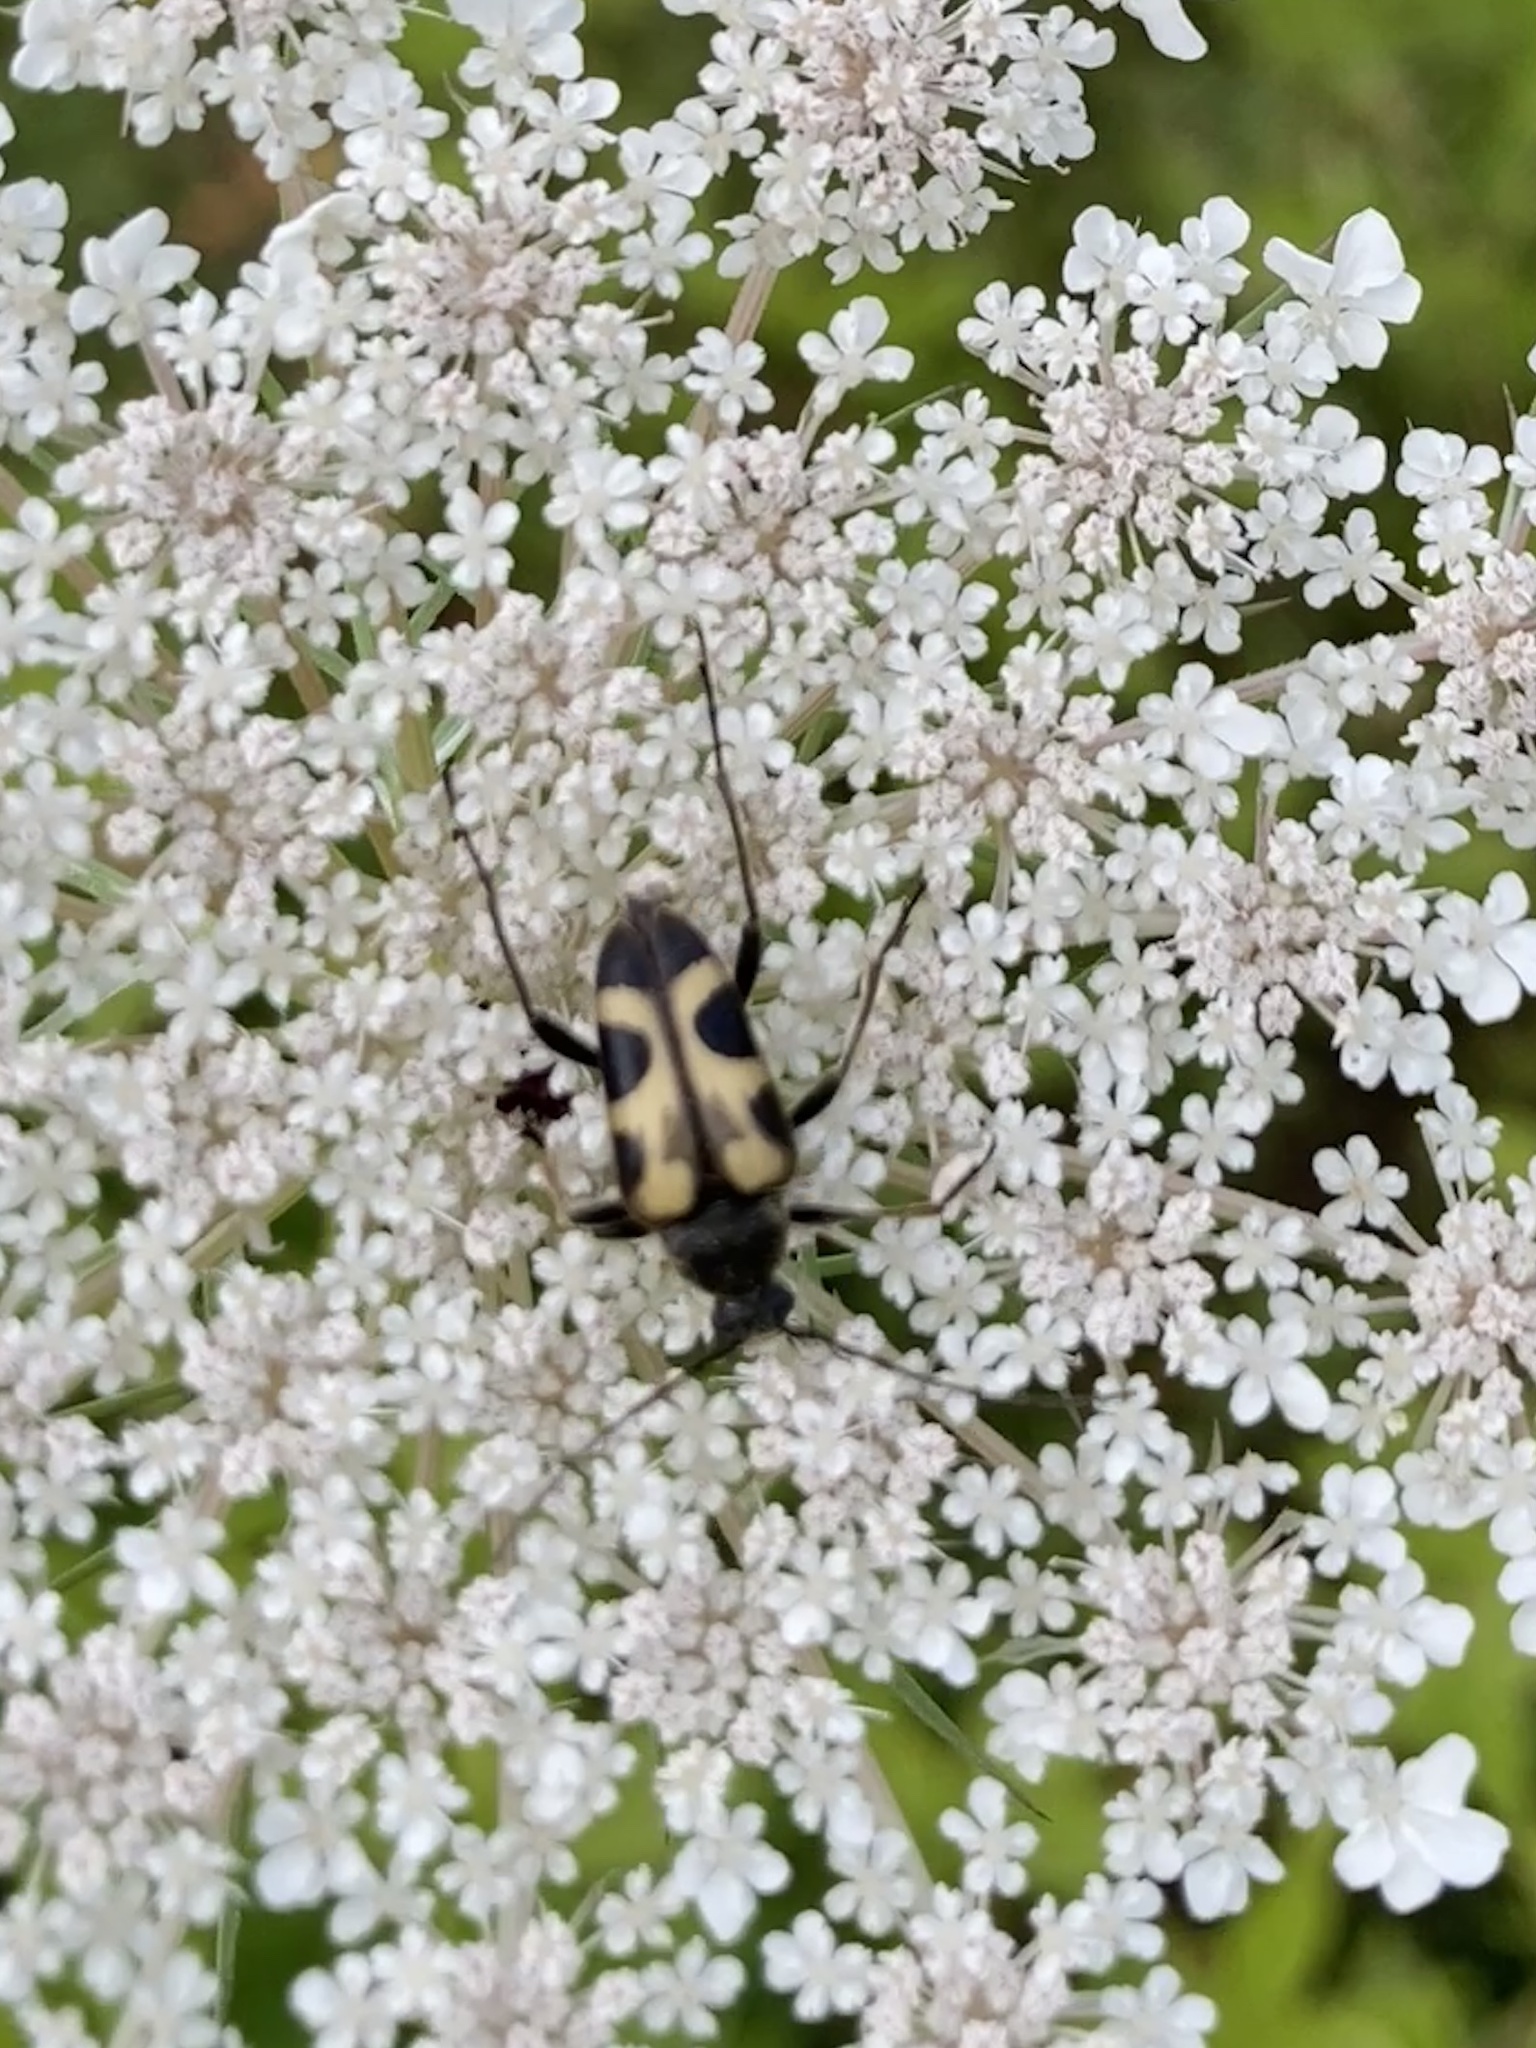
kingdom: Animalia
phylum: Arthropoda
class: Insecta
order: Coleoptera
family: Cerambycidae
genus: Judolia
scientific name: Judolia cordifera
